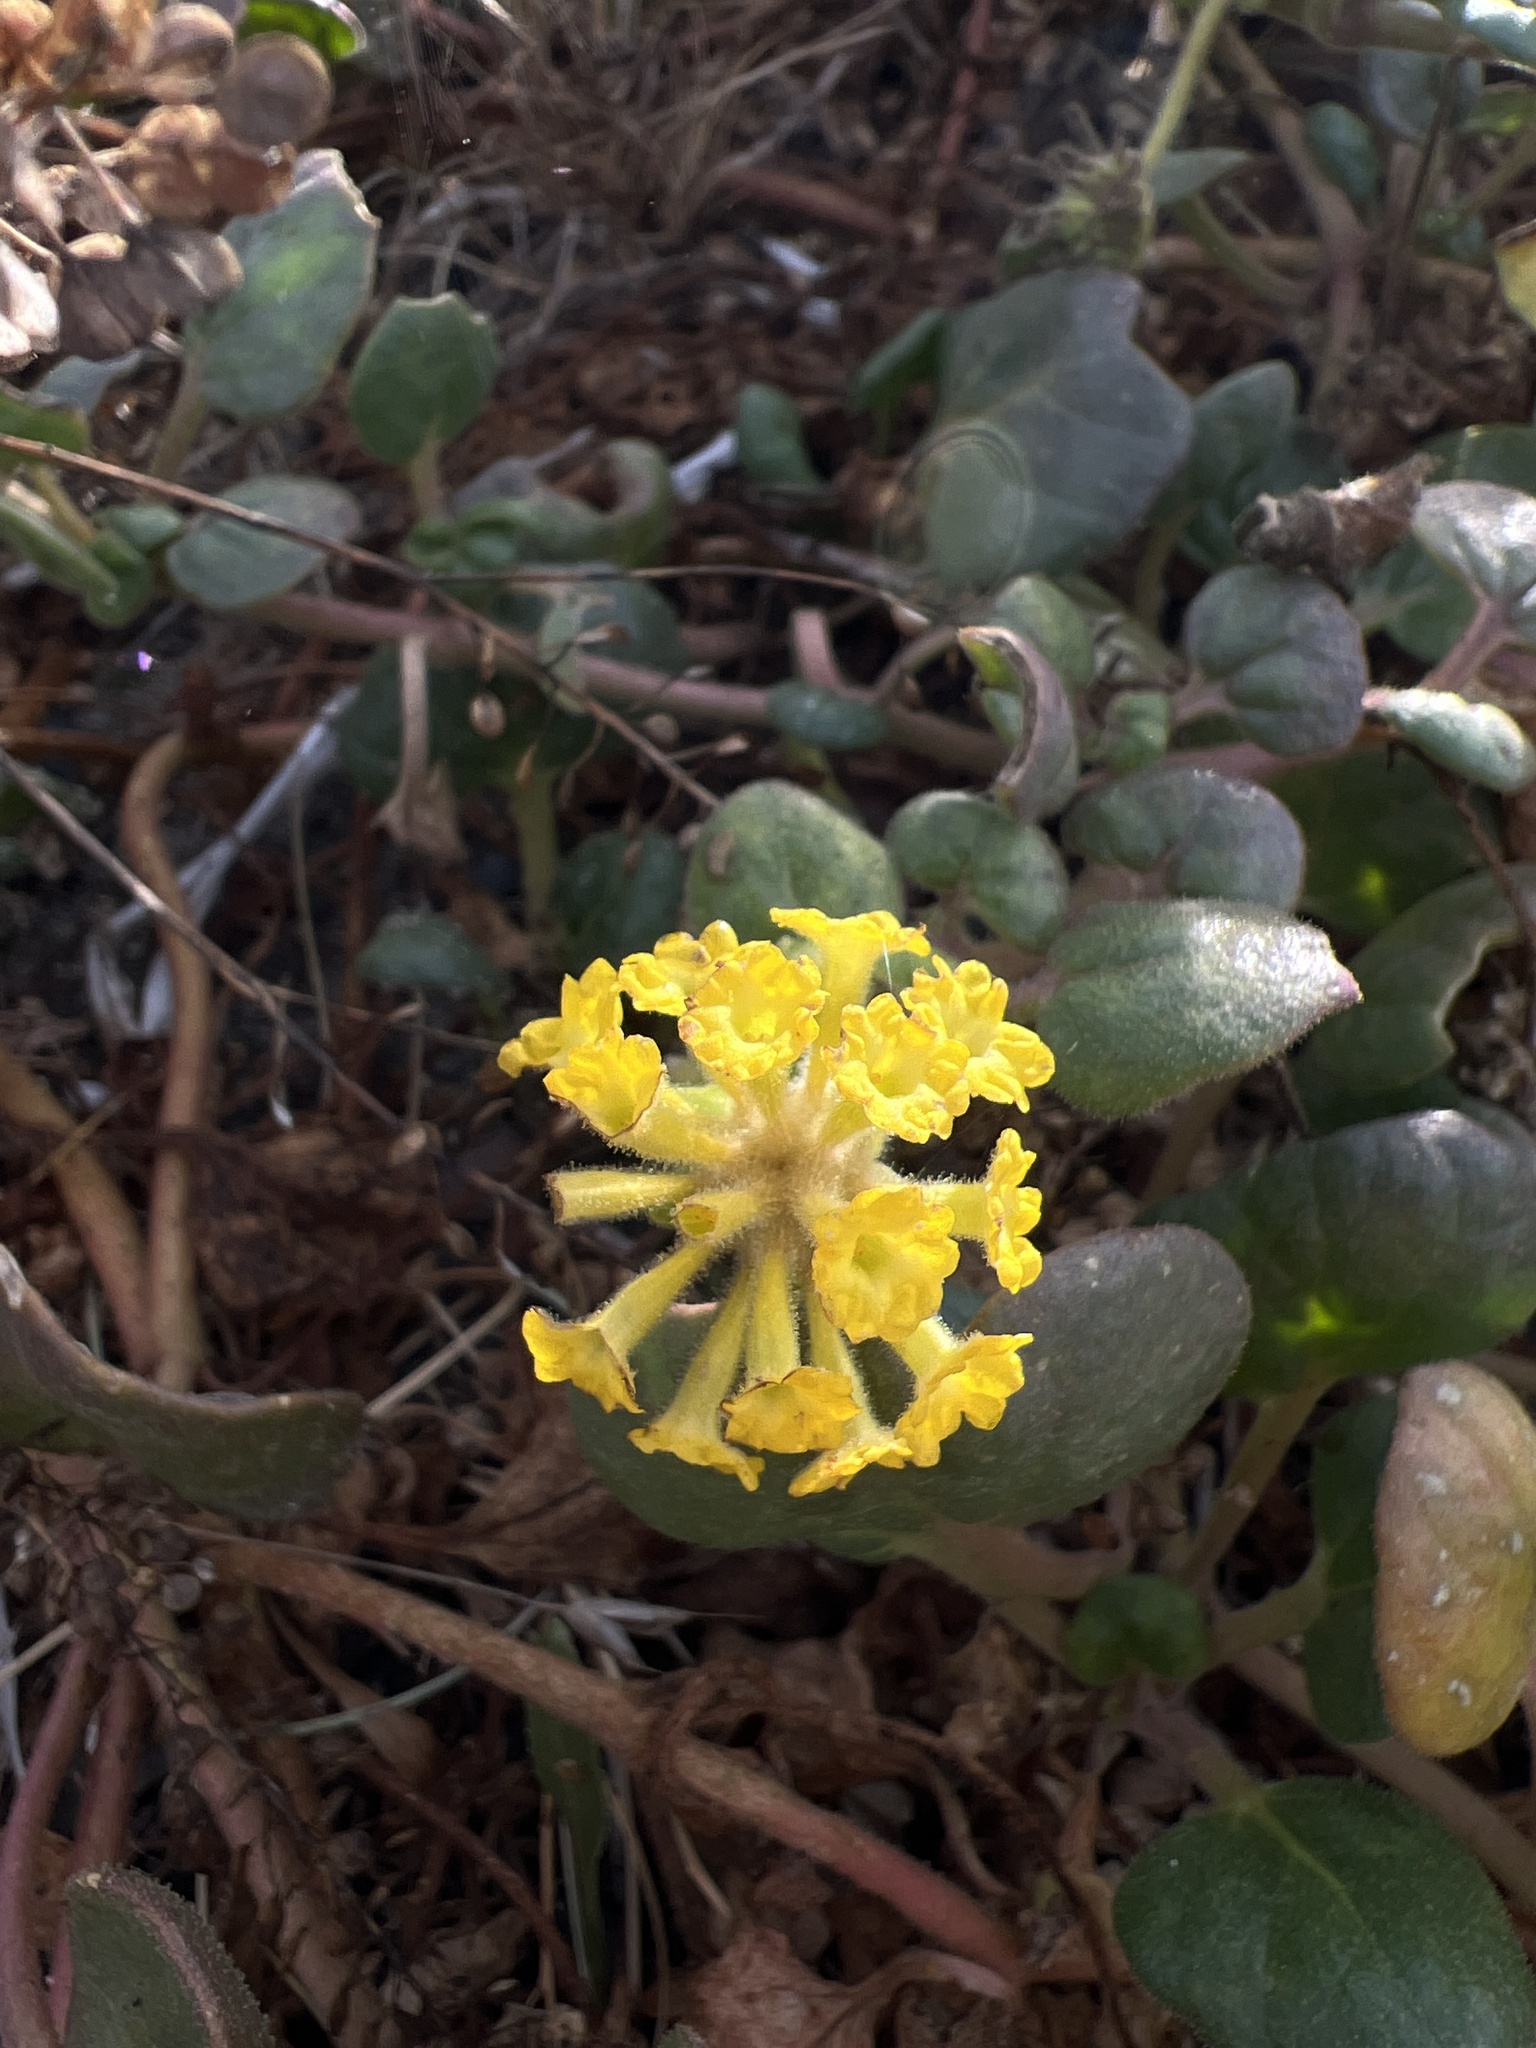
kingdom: Plantae
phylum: Tracheophyta
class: Magnoliopsida
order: Caryophyllales
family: Nyctaginaceae
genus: Abronia
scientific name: Abronia latifolia
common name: Yellow sand-verbena
